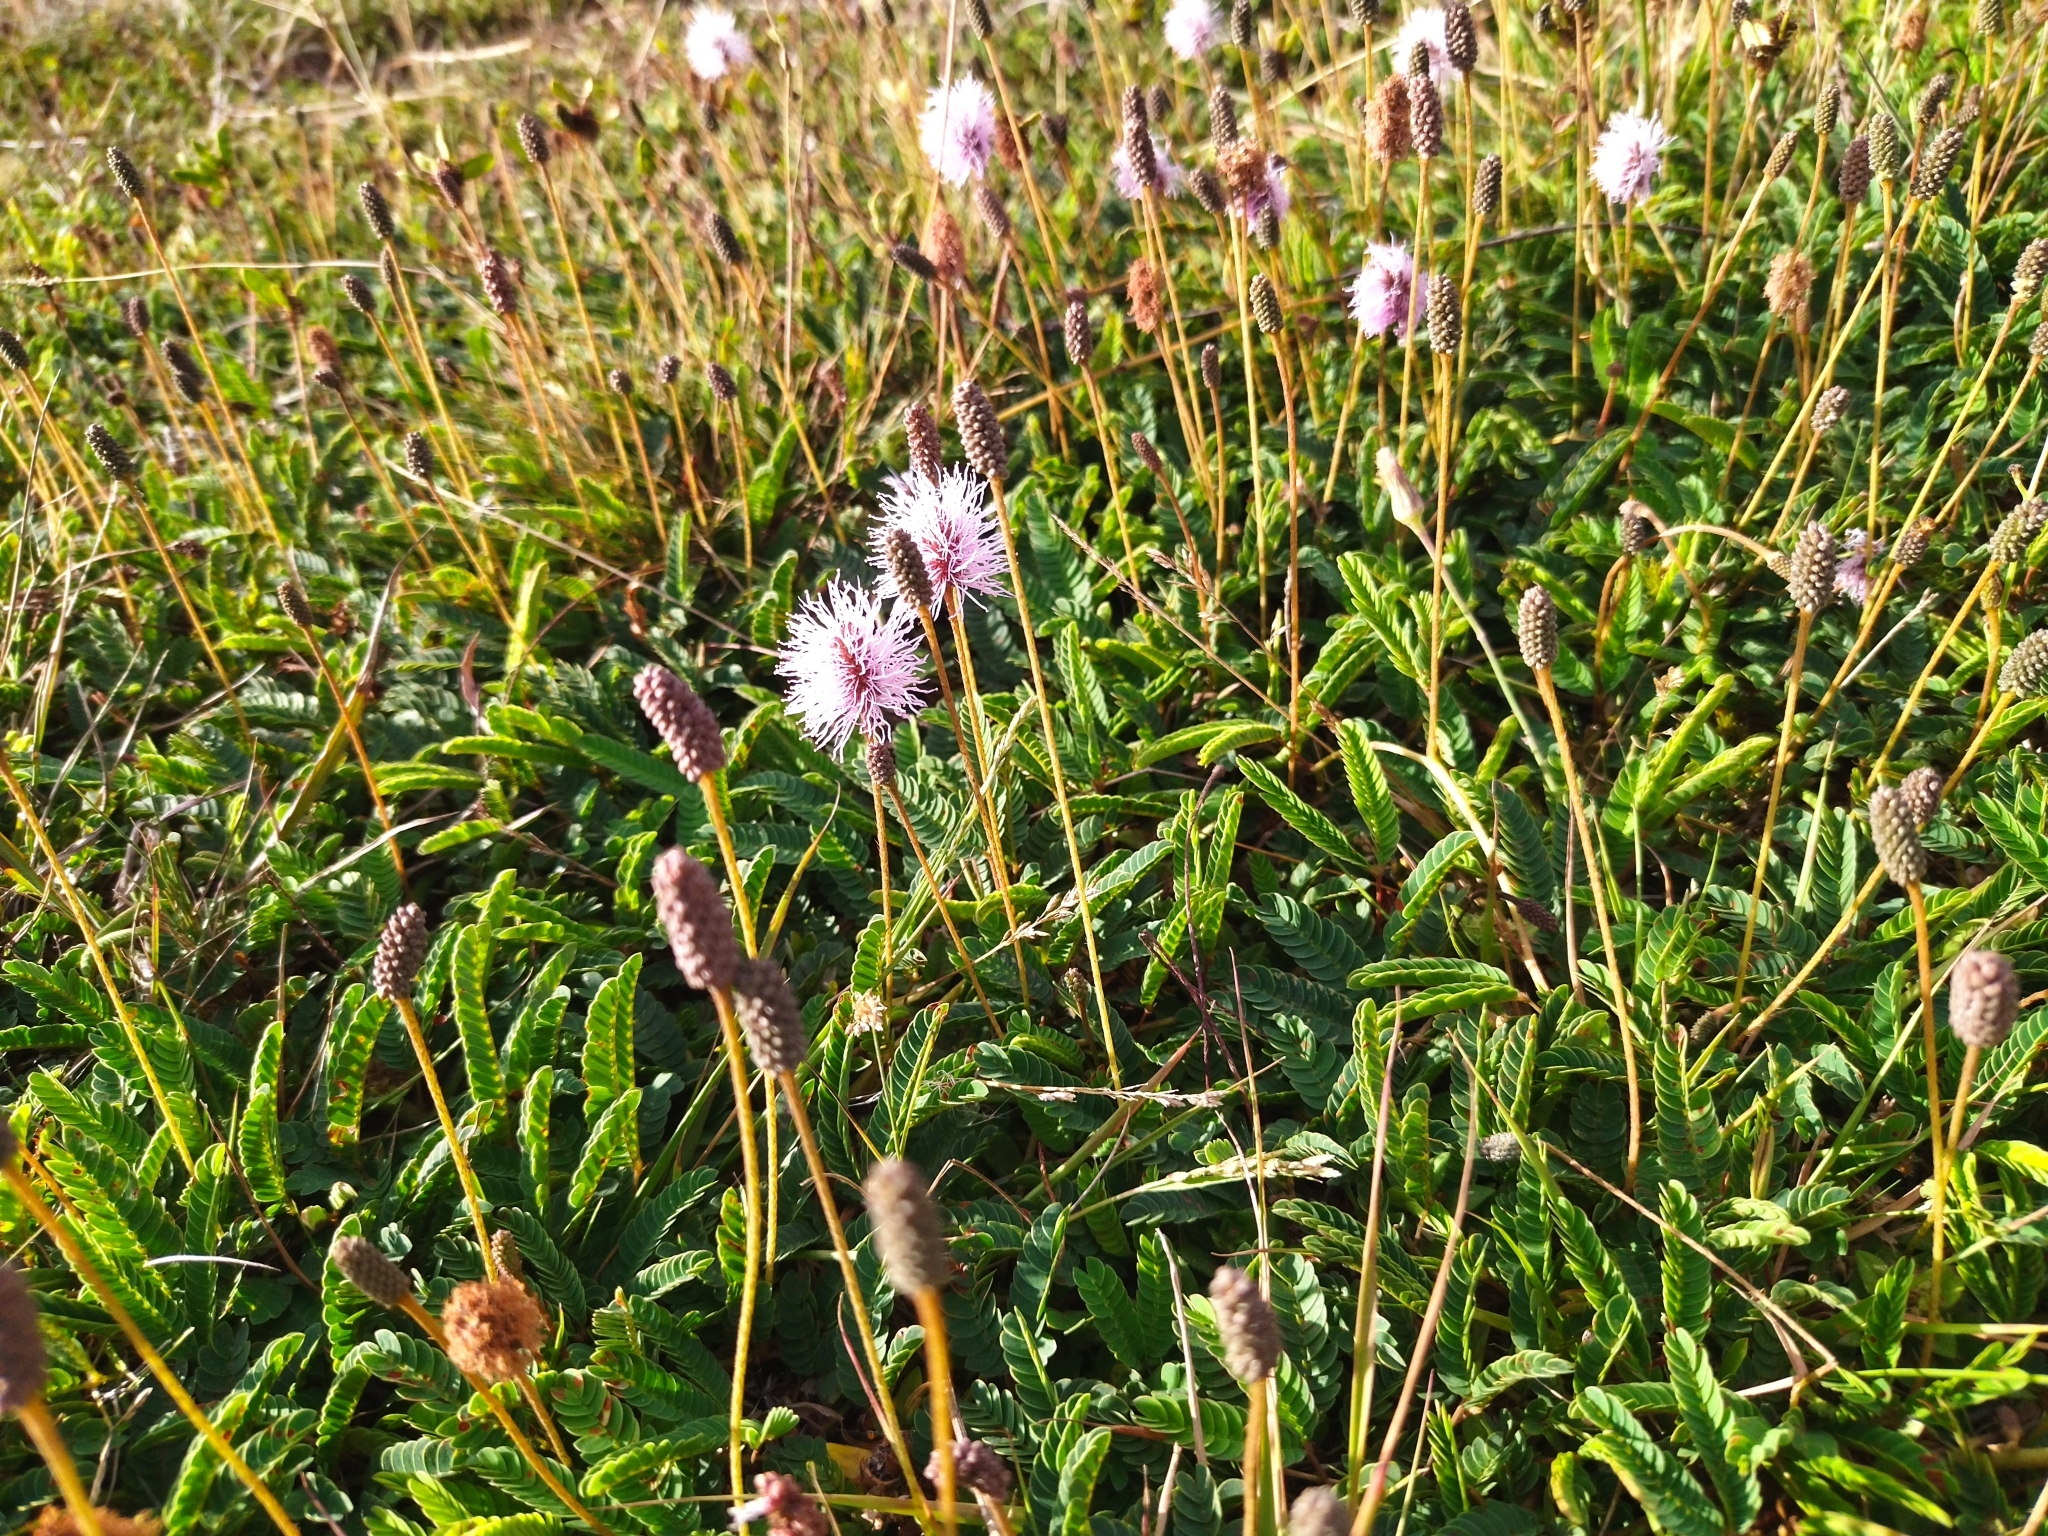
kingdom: Plantae
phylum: Tracheophyta
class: Magnoliopsida
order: Fabales
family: Fabaceae
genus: Mimosa
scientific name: Mimosa dutrae
